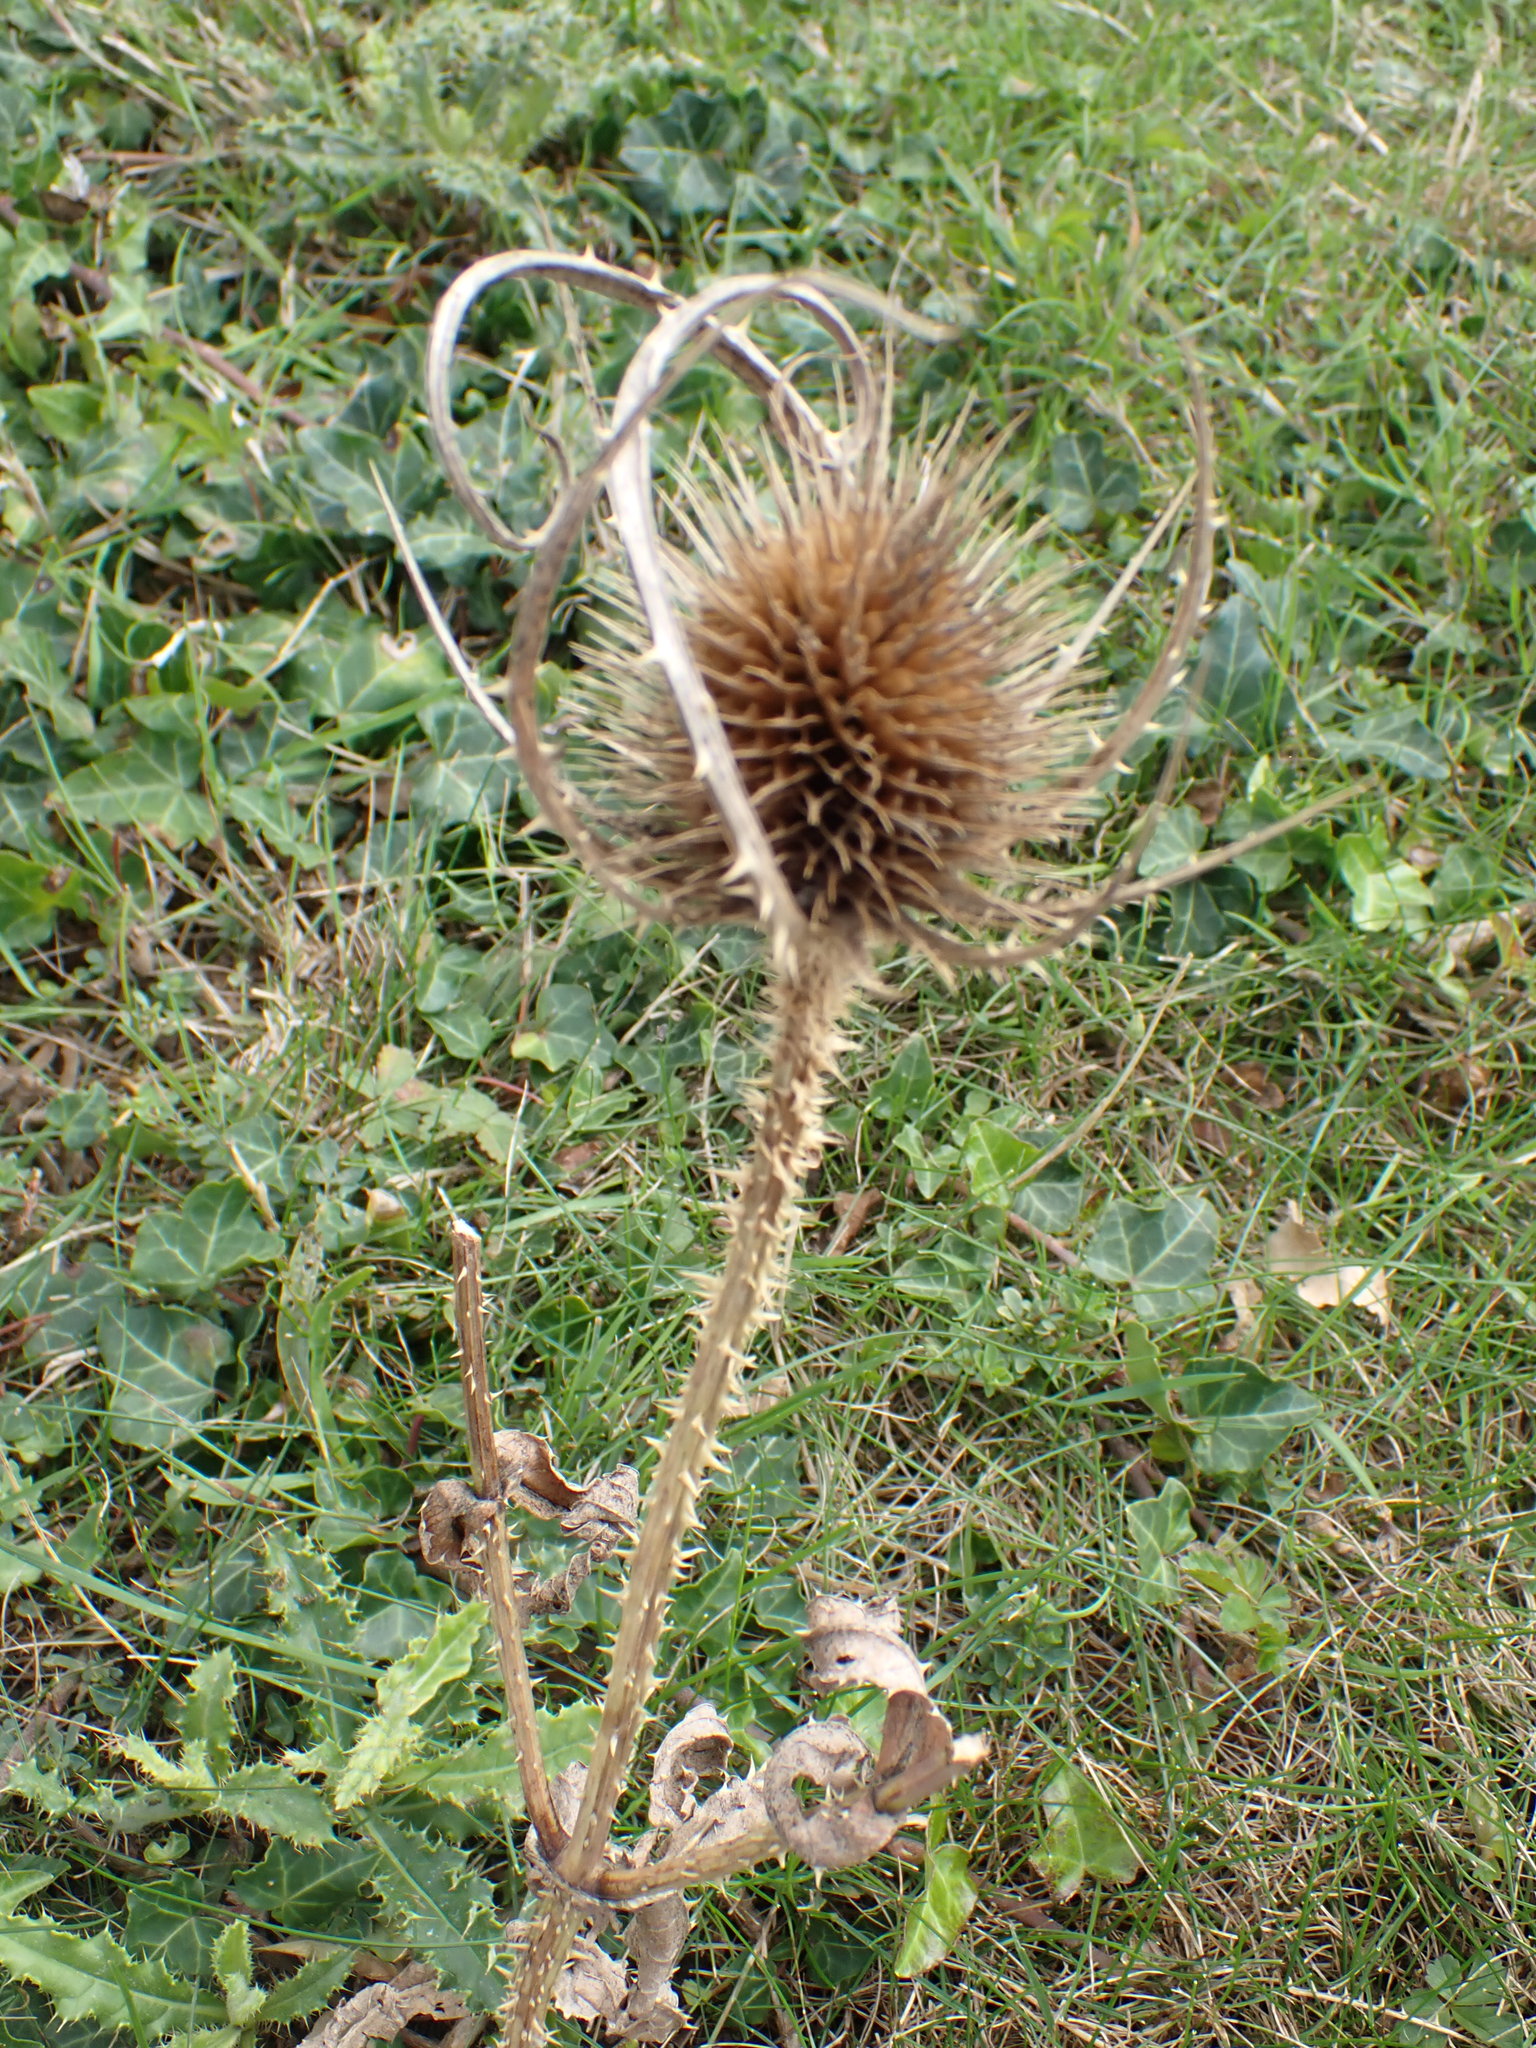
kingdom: Plantae
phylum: Tracheophyta
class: Magnoliopsida
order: Dipsacales
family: Caprifoliaceae
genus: Dipsacus
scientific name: Dipsacus fullonum
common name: Teasel
